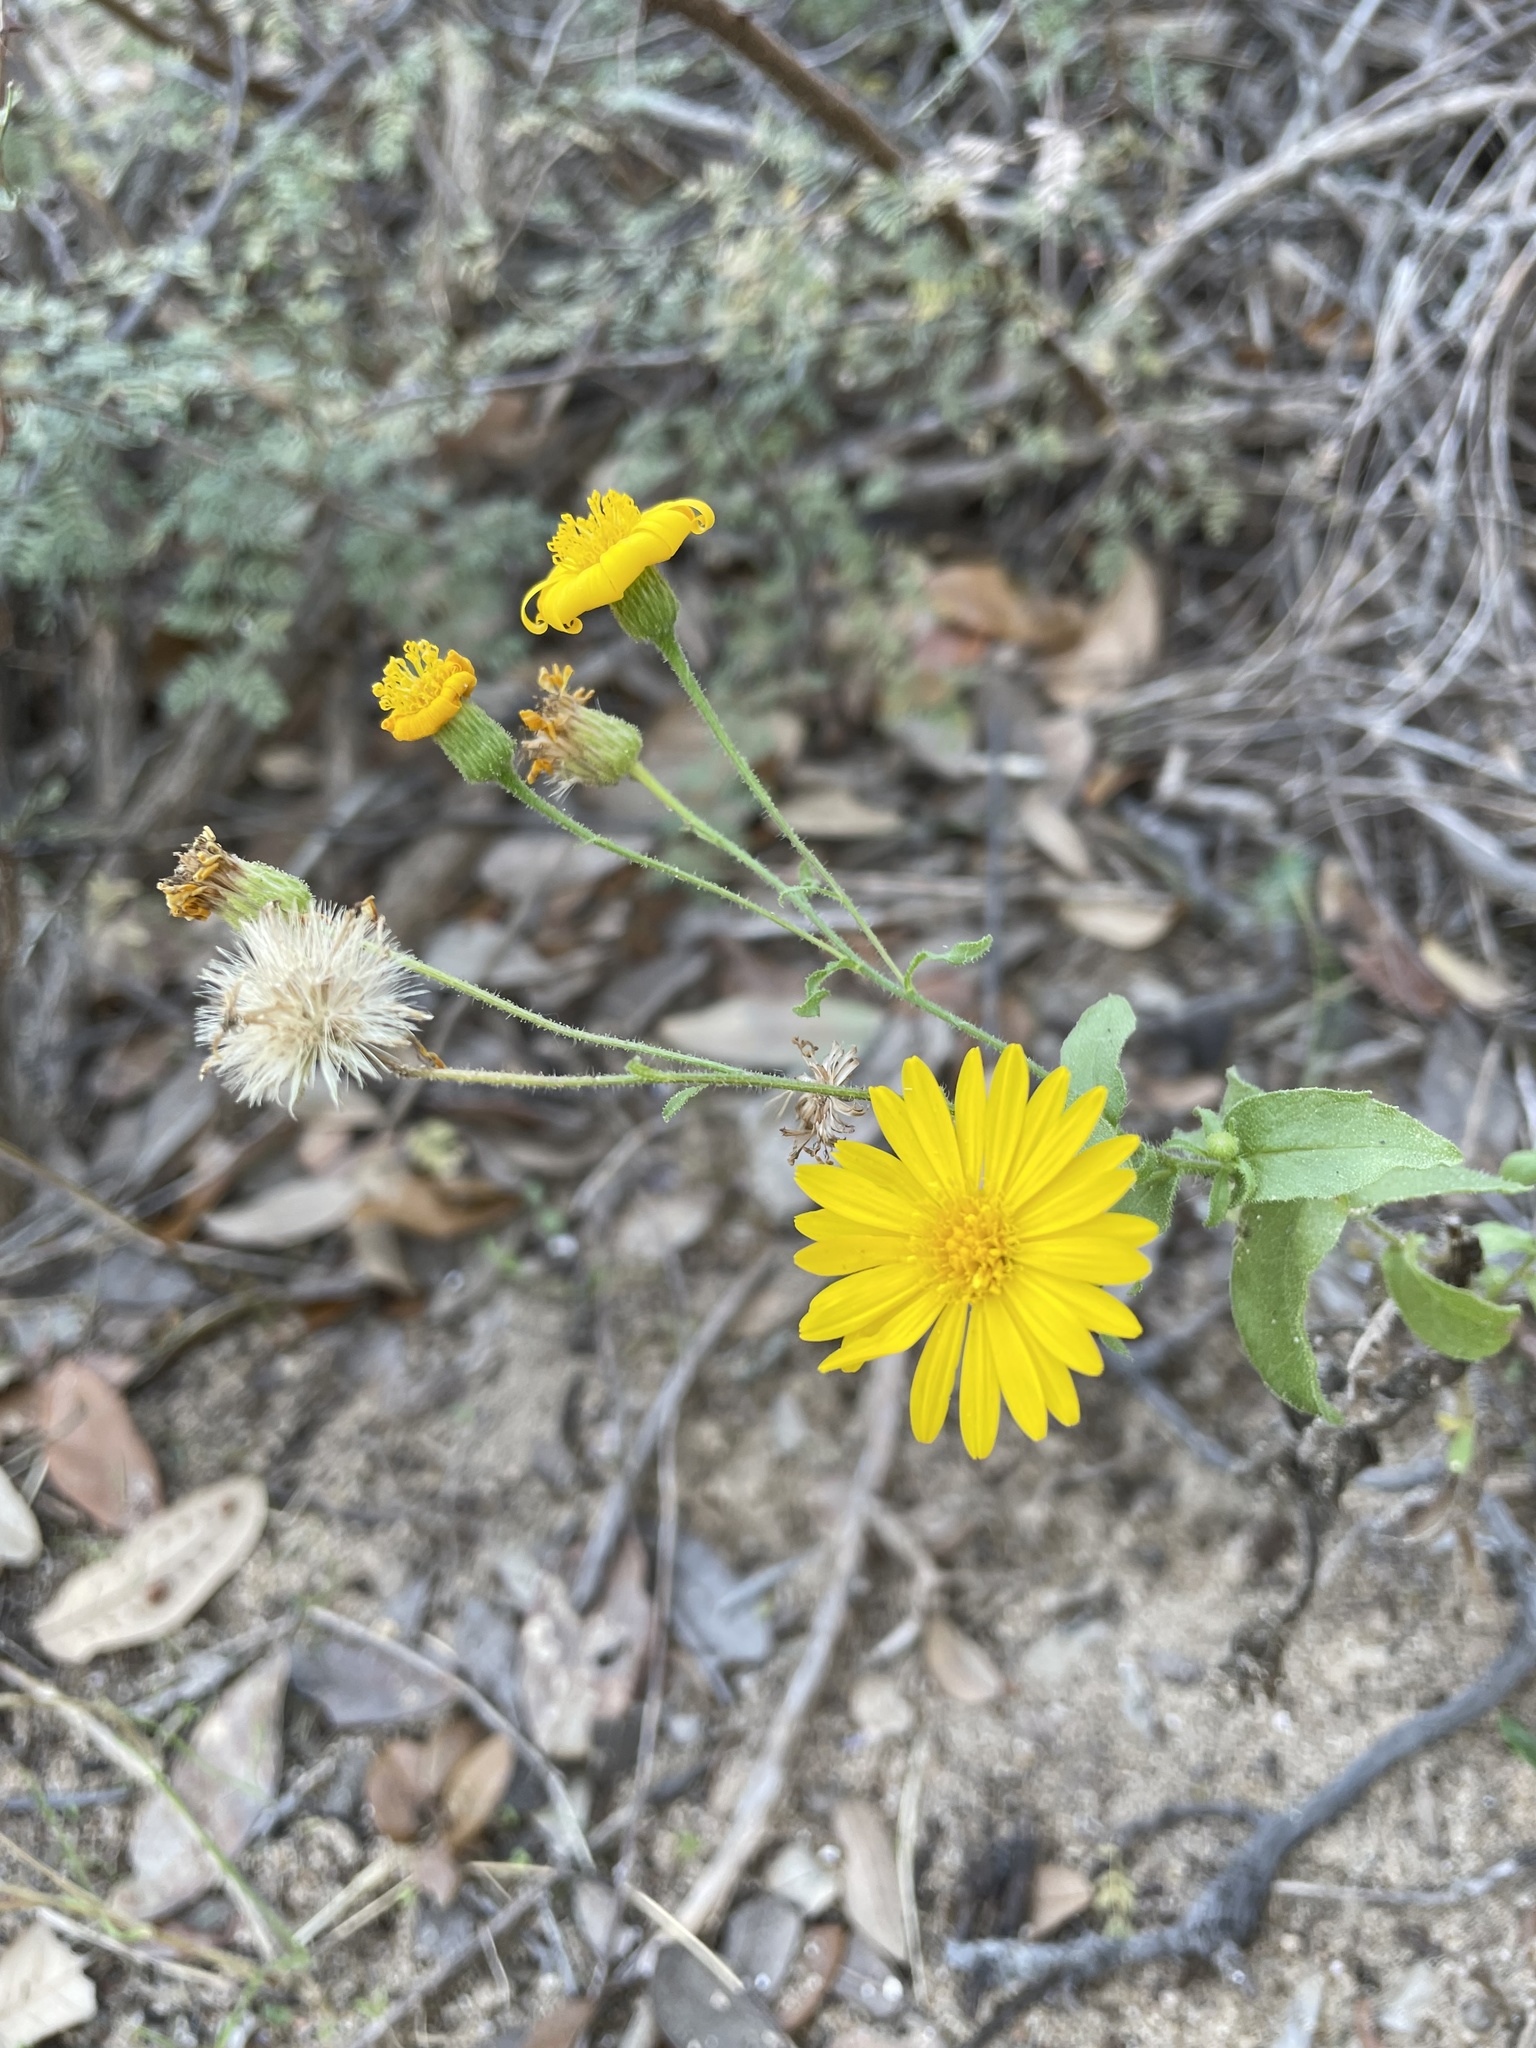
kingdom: Plantae
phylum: Tracheophyta
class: Magnoliopsida
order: Asterales
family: Asteraceae
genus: Heterotheca
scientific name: Heterotheca subaxillaris
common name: Camphorweed
